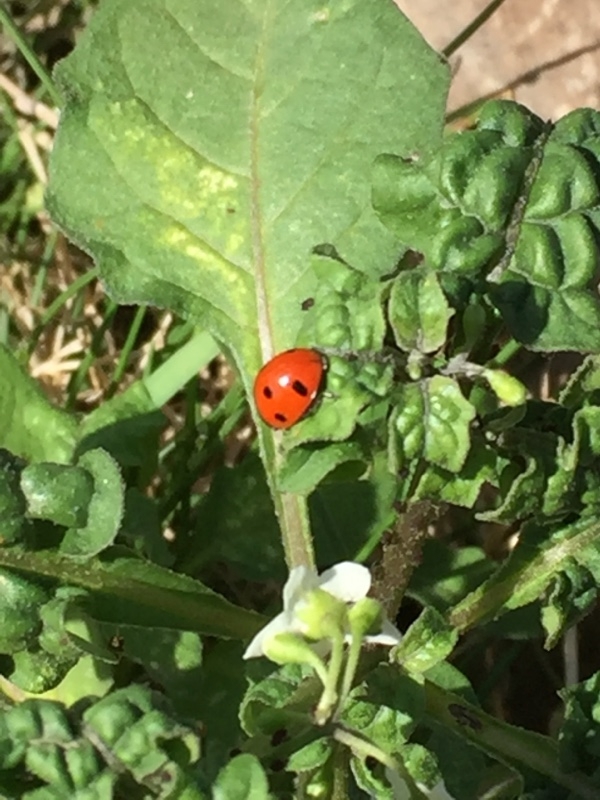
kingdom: Animalia
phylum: Arthropoda
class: Insecta
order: Coleoptera
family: Coccinellidae
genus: Coccinella
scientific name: Coccinella algerica
